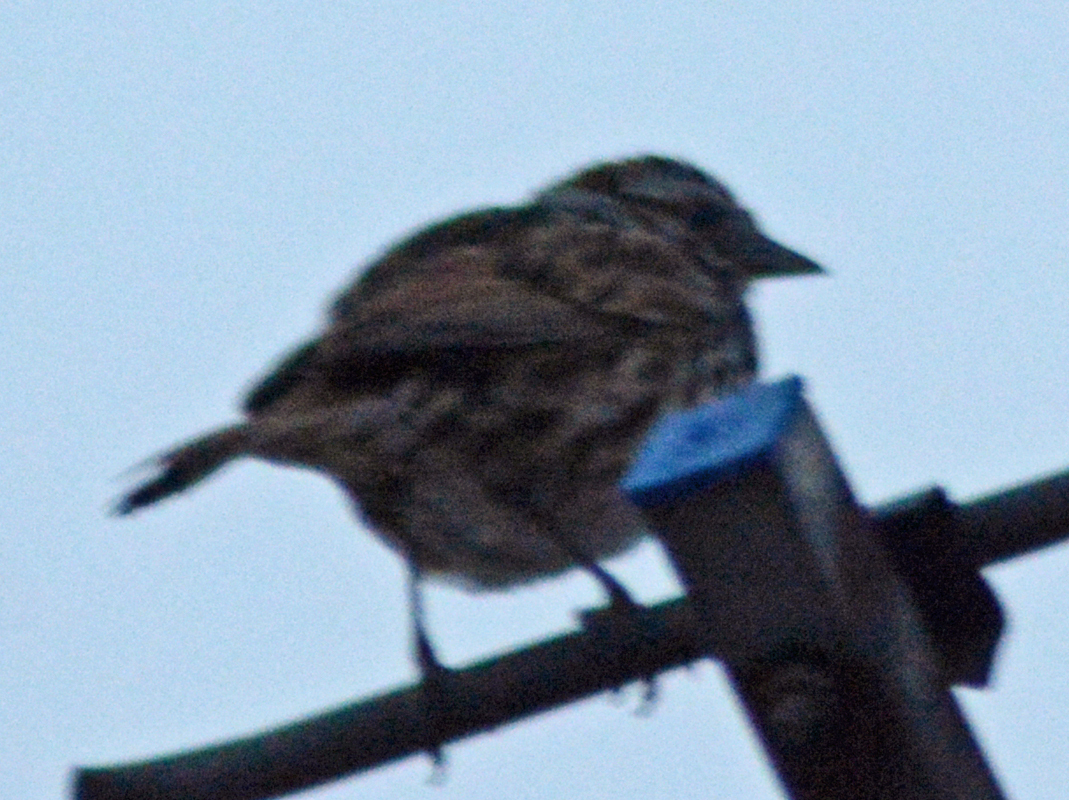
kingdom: Animalia
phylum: Chordata
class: Aves
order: Passeriformes
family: Passerellidae
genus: Melospiza
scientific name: Melospiza melodia
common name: Song sparrow
